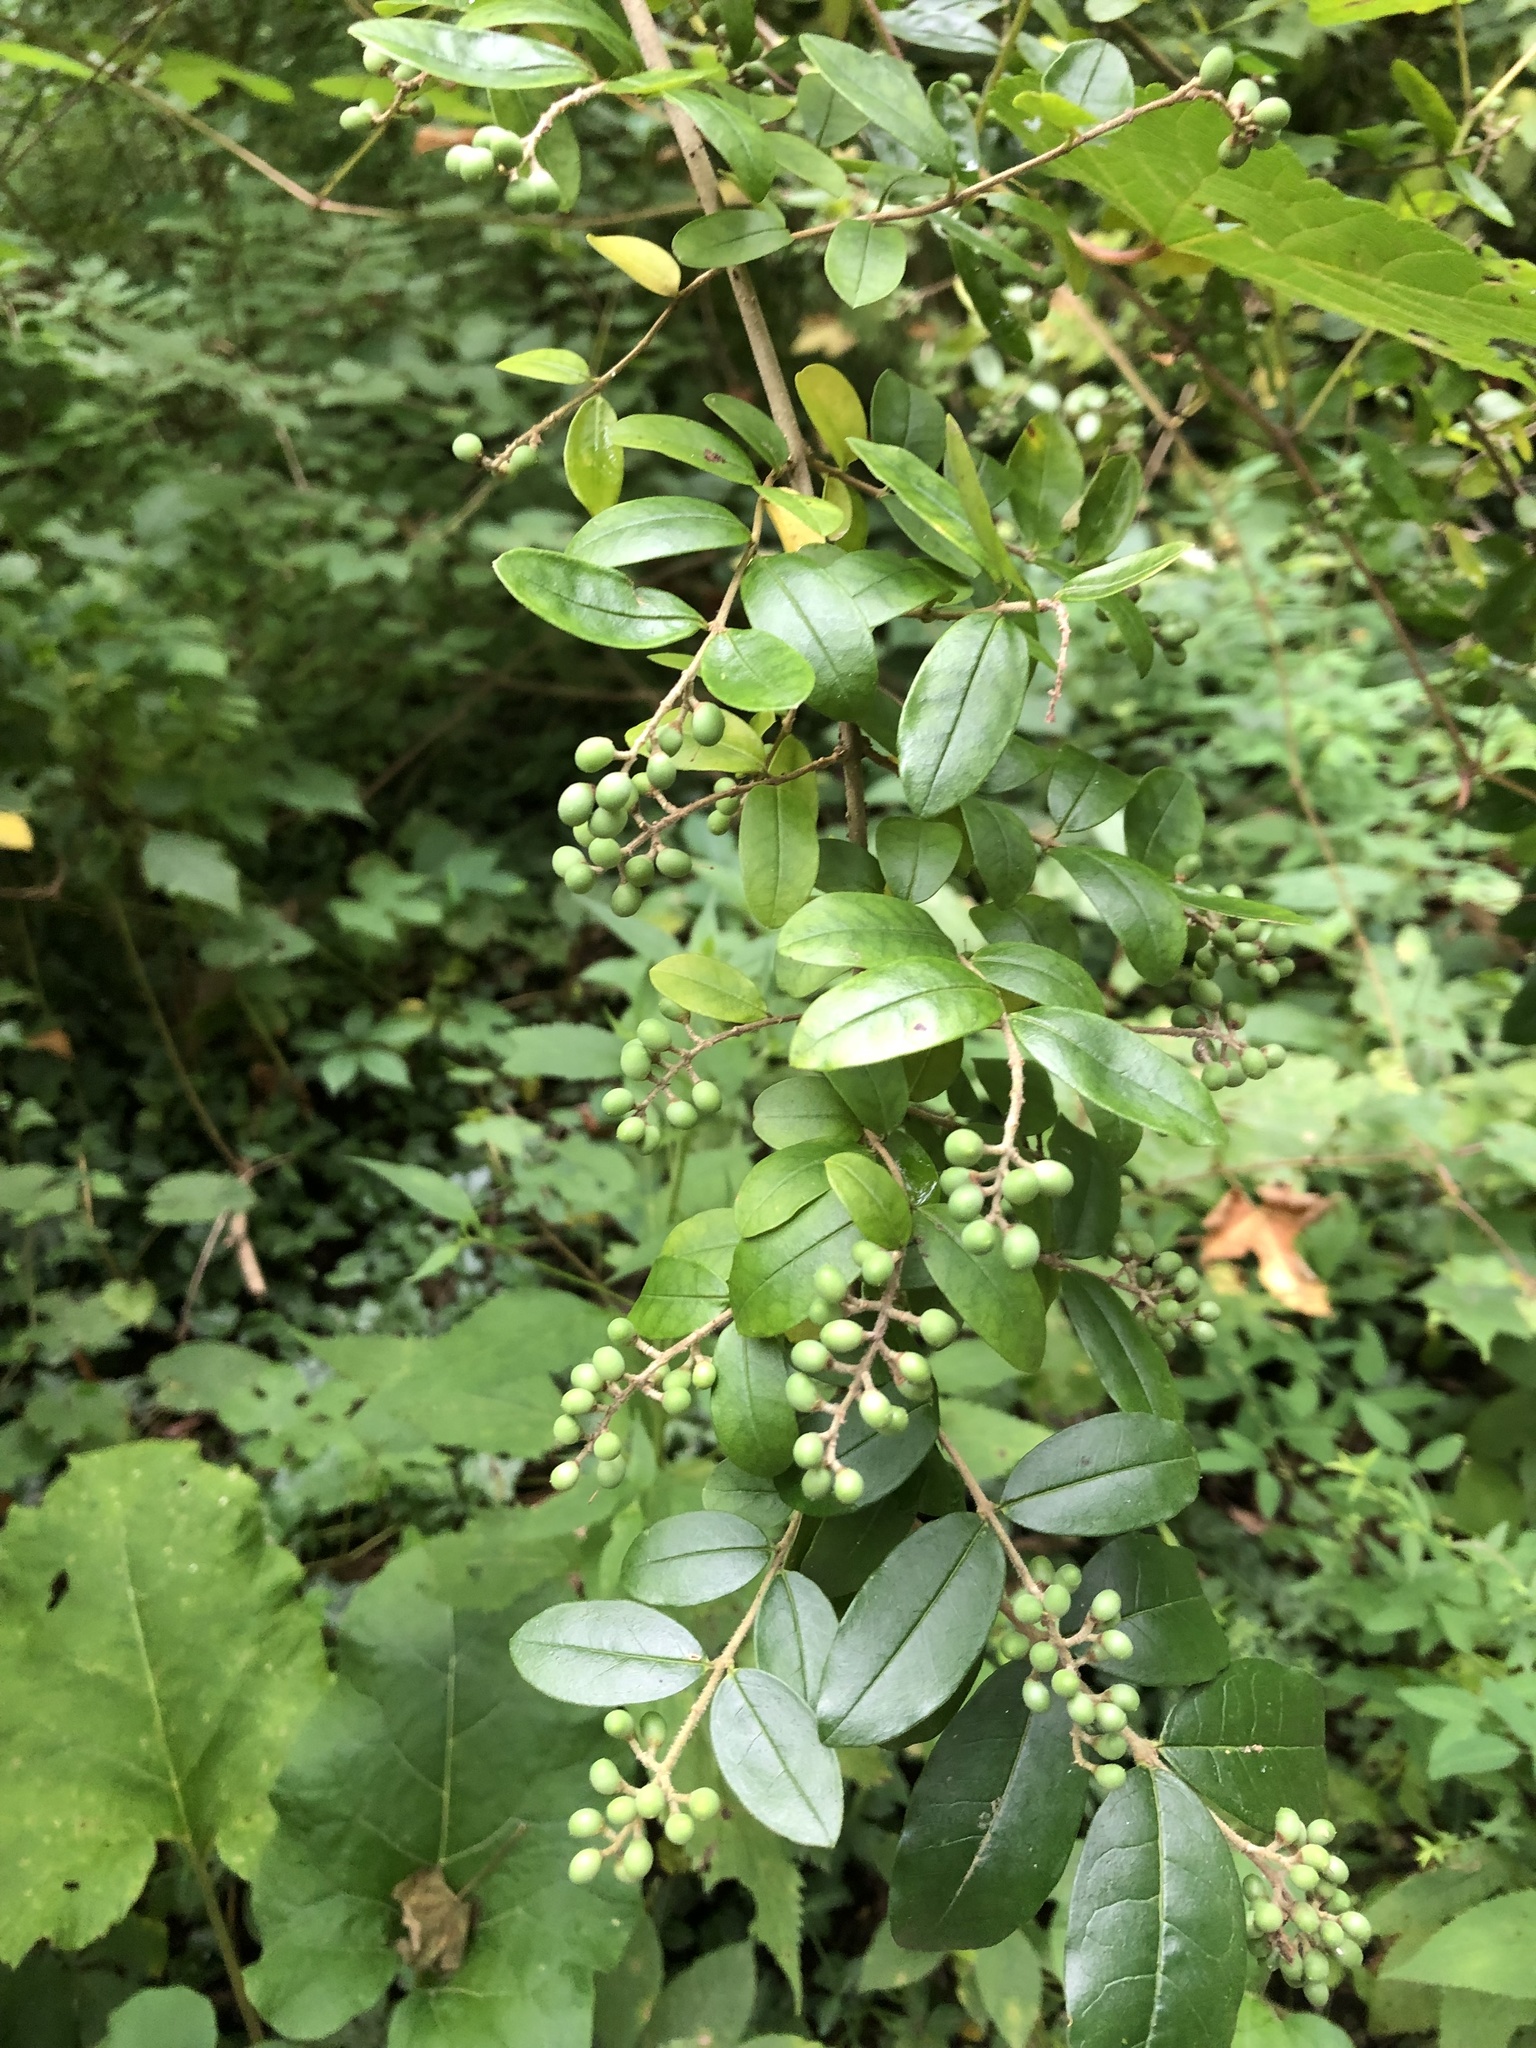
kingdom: Plantae
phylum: Tracheophyta
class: Magnoliopsida
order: Lamiales
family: Oleaceae
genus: Ligustrum
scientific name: Ligustrum obtusifolium
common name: Border privet
